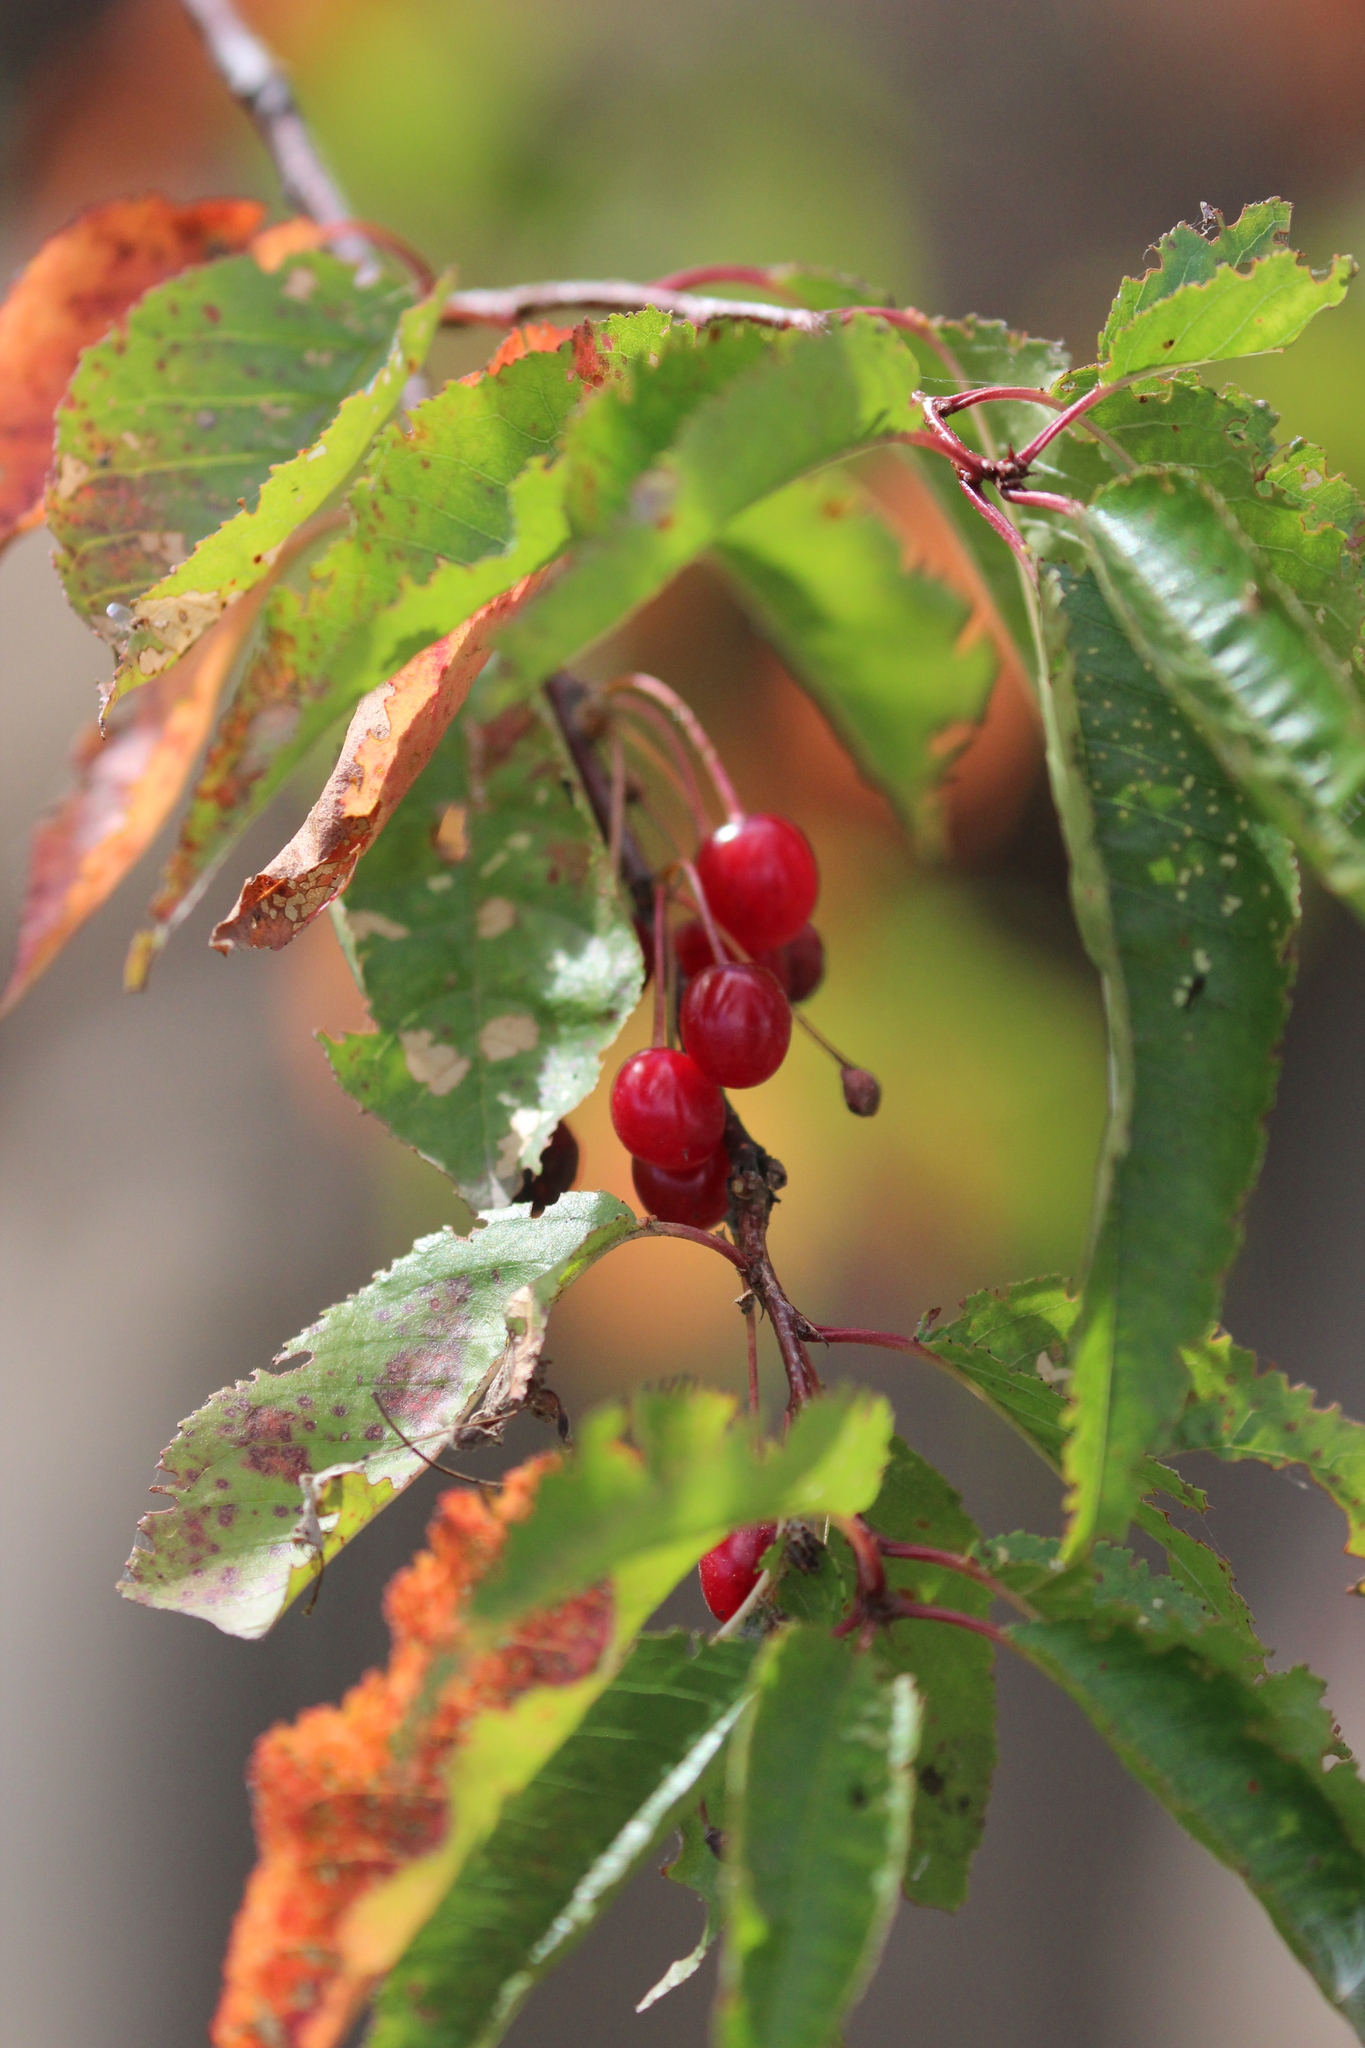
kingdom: Plantae
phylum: Tracheophyta
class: Magnoliopsida
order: Rosales
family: Rosaceae
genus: Prunus
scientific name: Prunus pensylvanica
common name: Pin cherry
